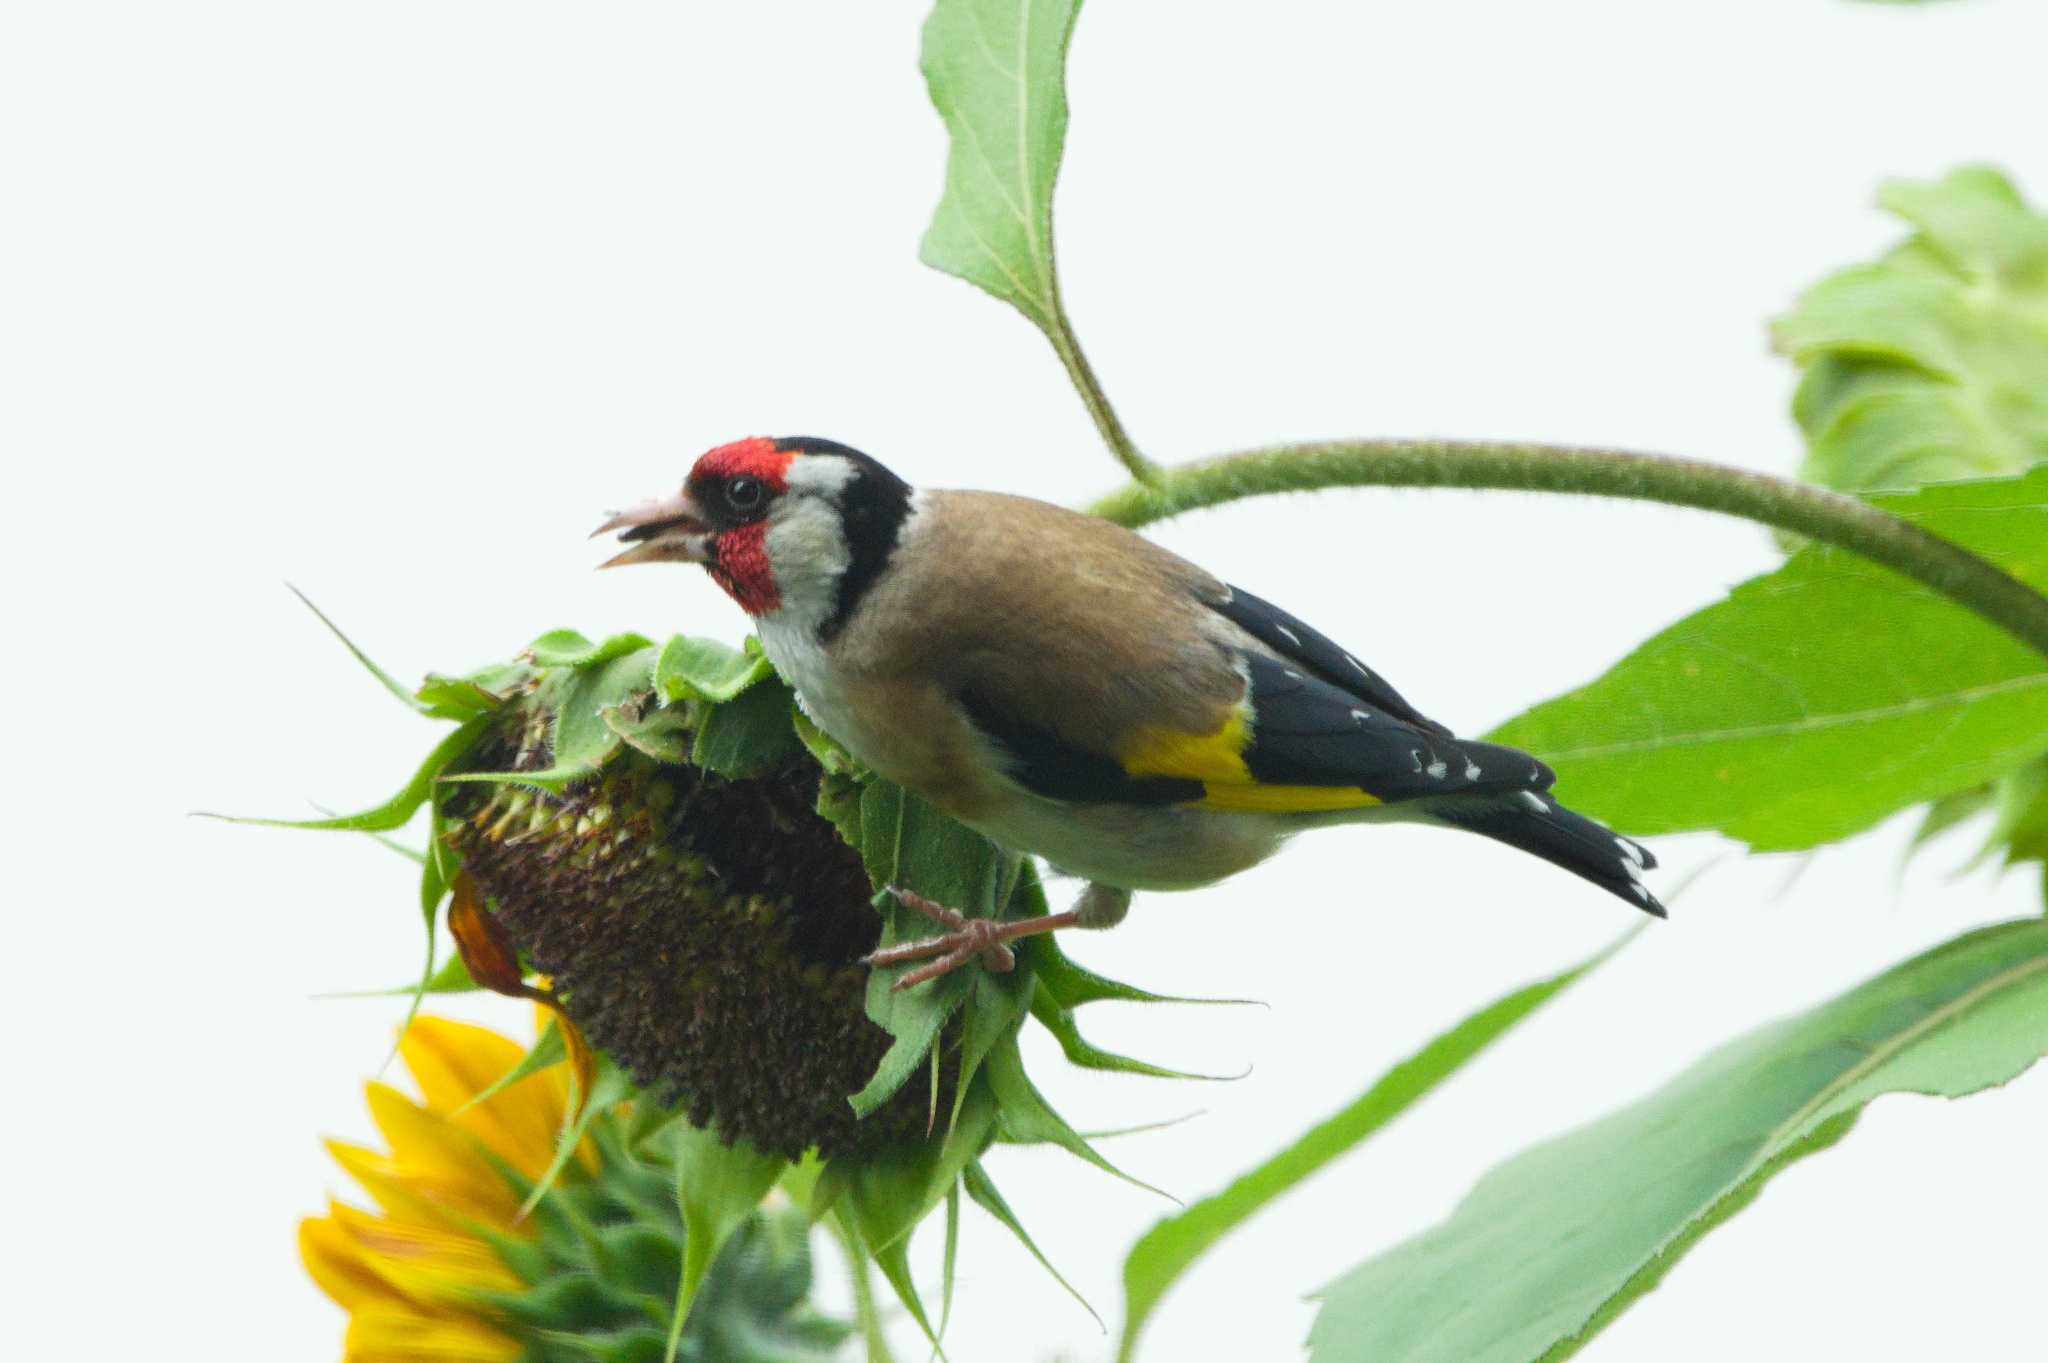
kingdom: Animalia
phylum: Chordata
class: Aves
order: Passeriformes
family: Fringillidae
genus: Carduelis
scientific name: Carduelis carduelis
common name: European goldfinch
